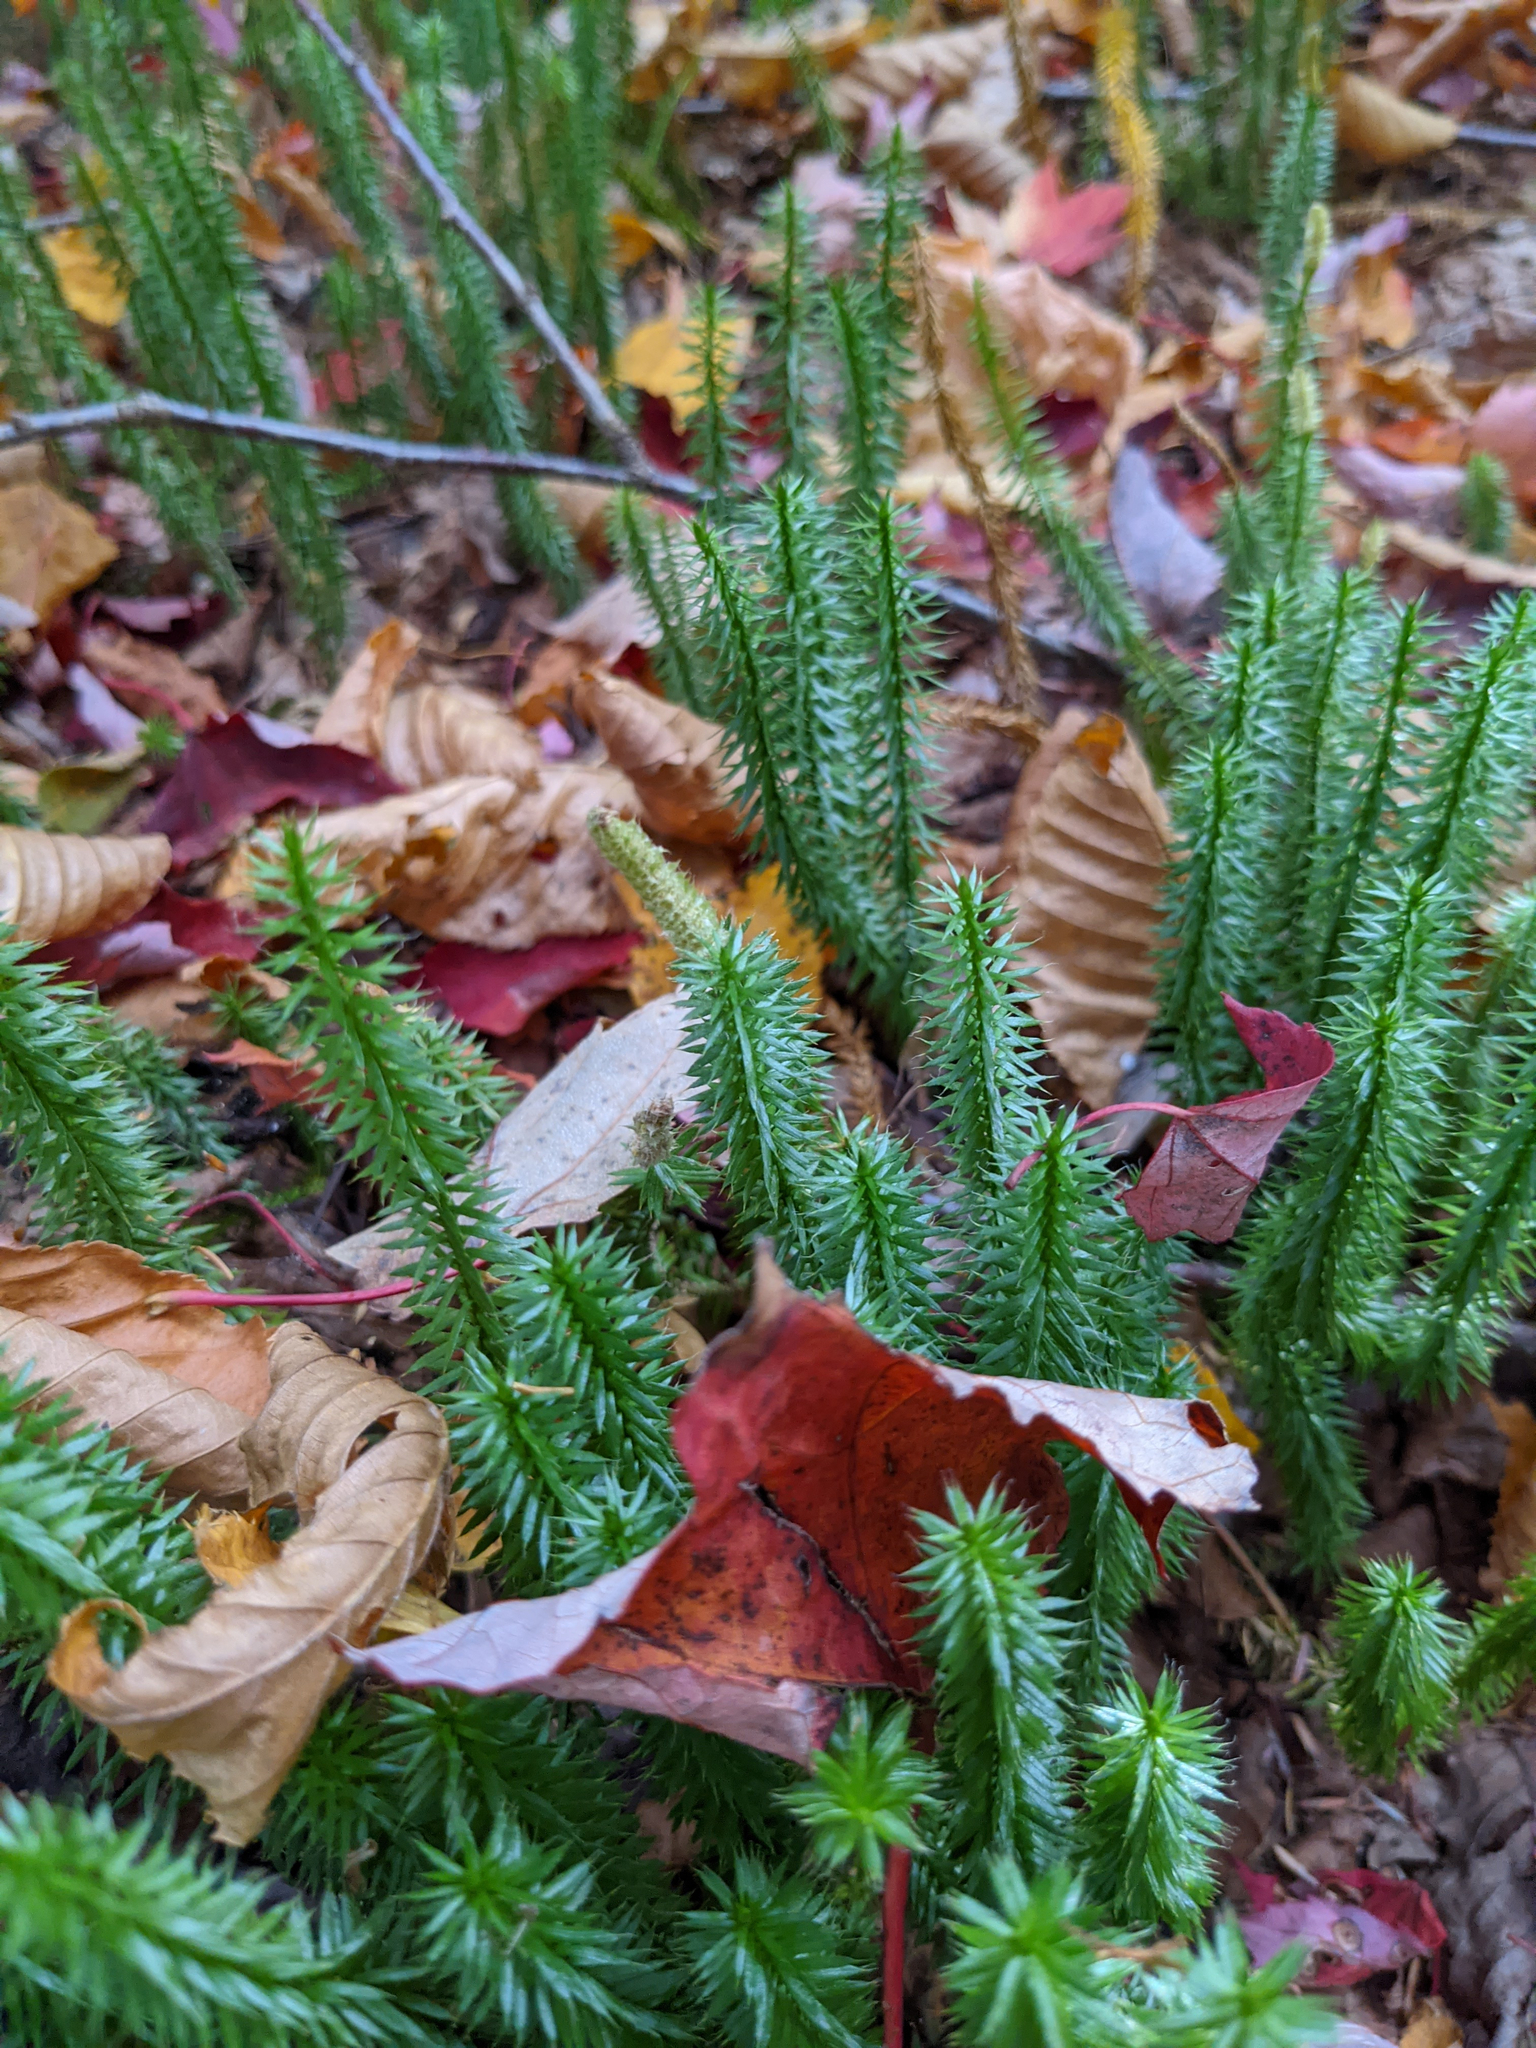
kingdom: Plantae
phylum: Tracheophyta
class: Lycopodiopsida
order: Lycopodiales
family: Lycopodiaceae
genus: Spinulum
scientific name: Spinulum annotinum
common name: Interrupted club-moss
